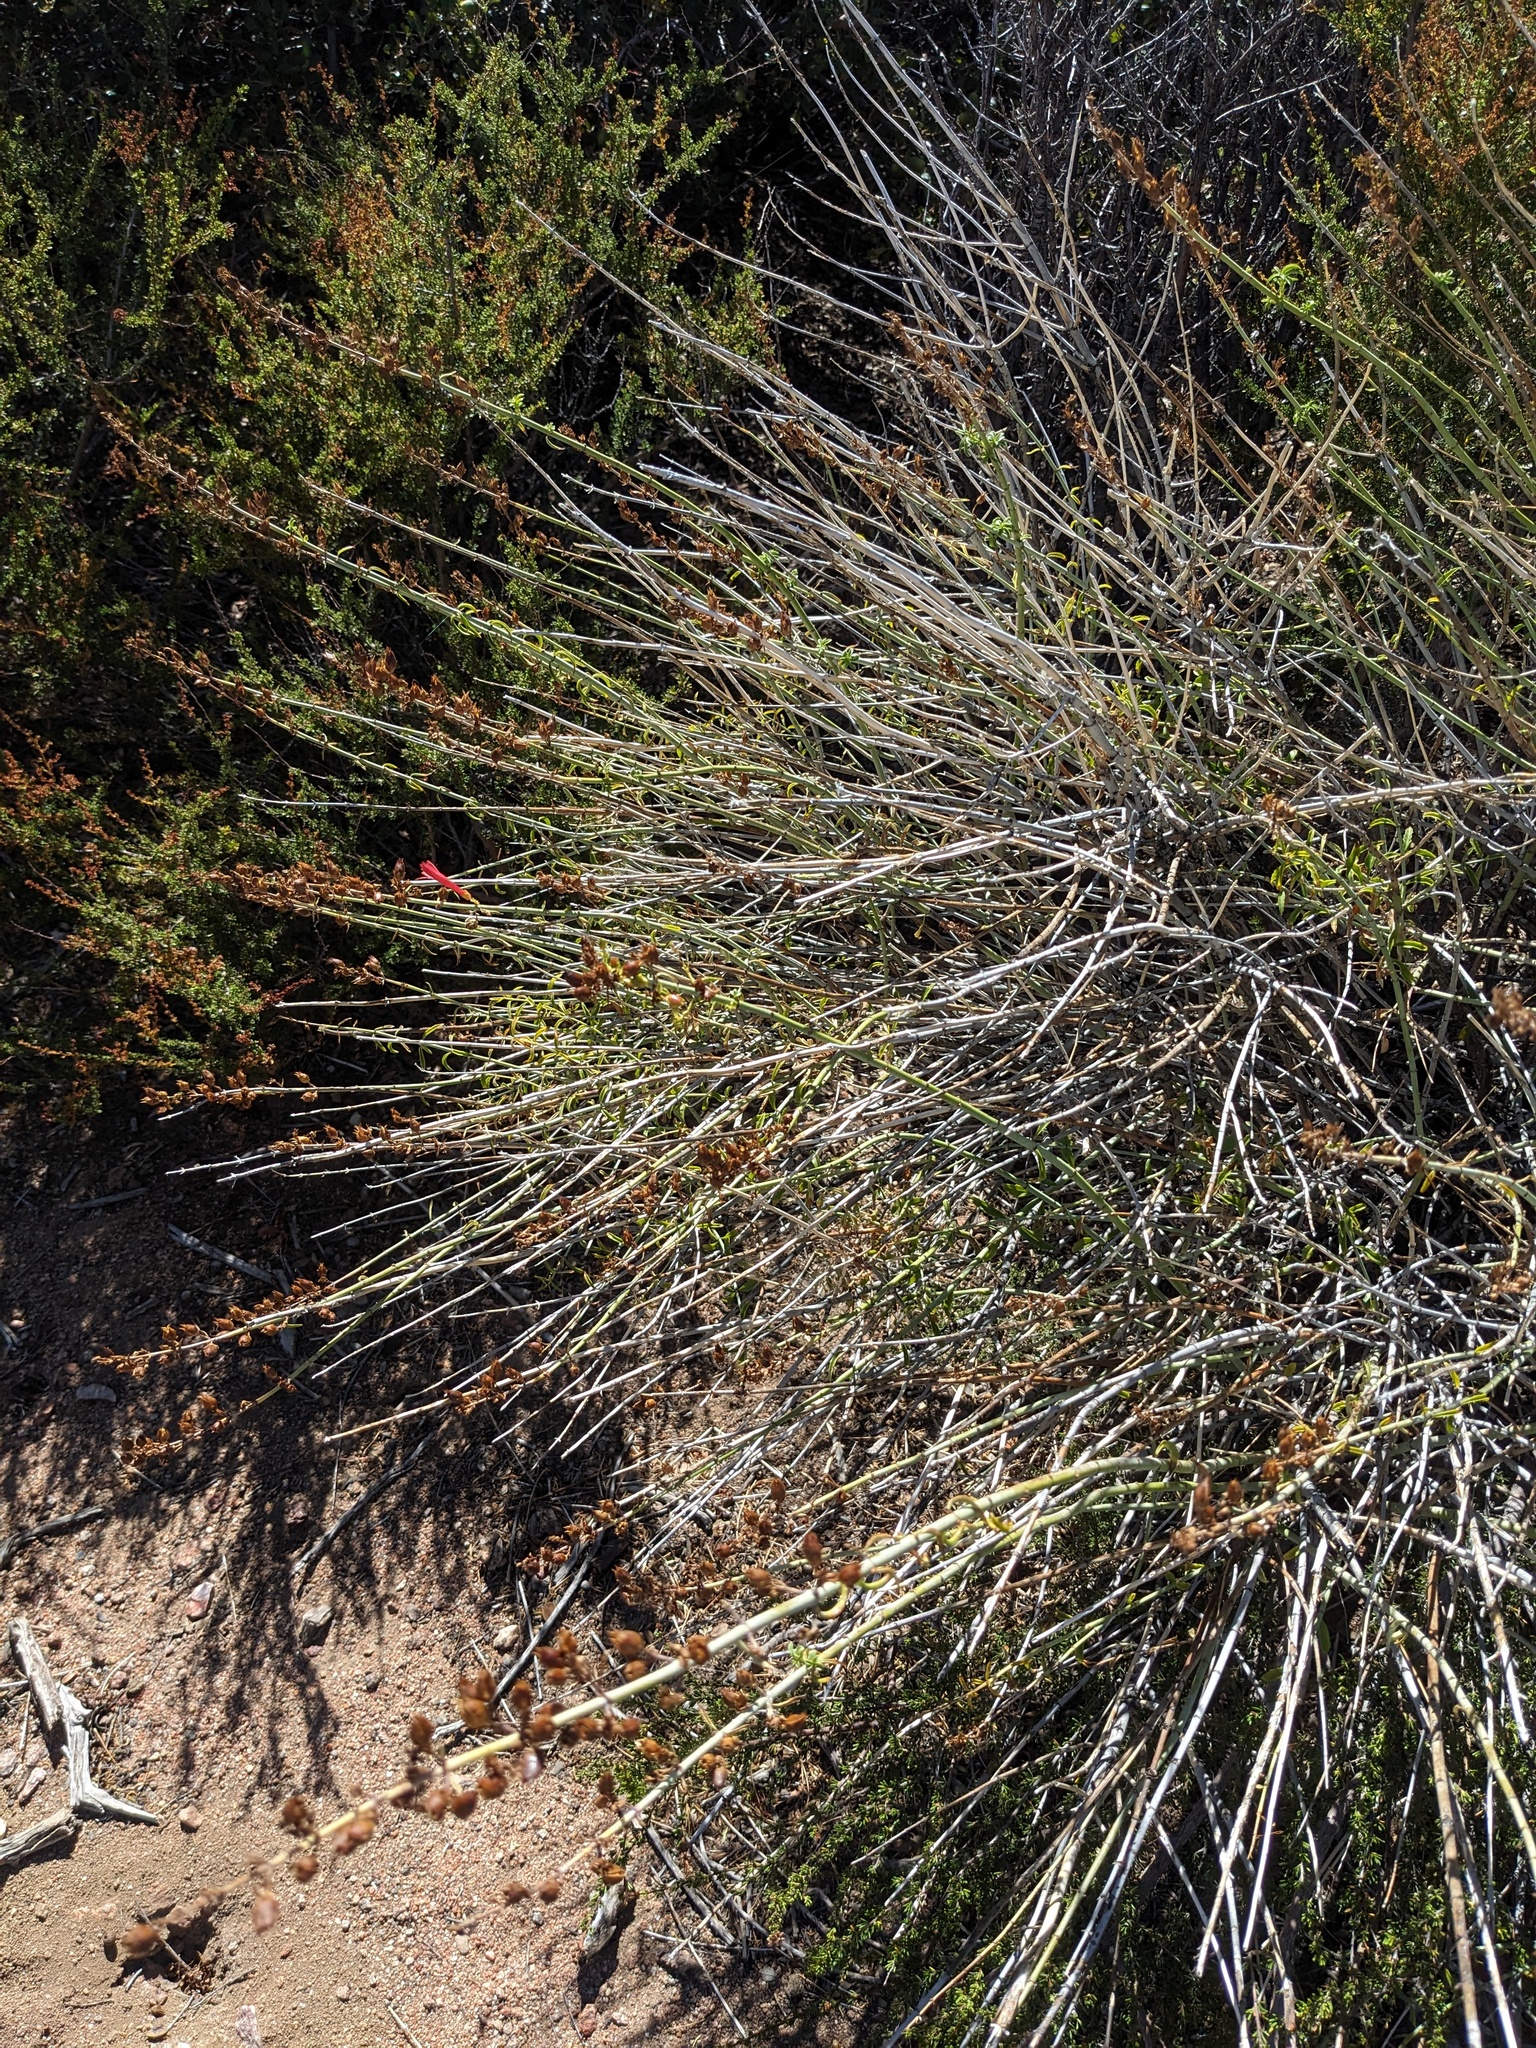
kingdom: Plantae
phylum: Tracheophyta
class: Magnoliopsida
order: Lamiales
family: Plantaginaceae
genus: Keckiella
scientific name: Keckiella ternata
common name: Scarlet keckiella
